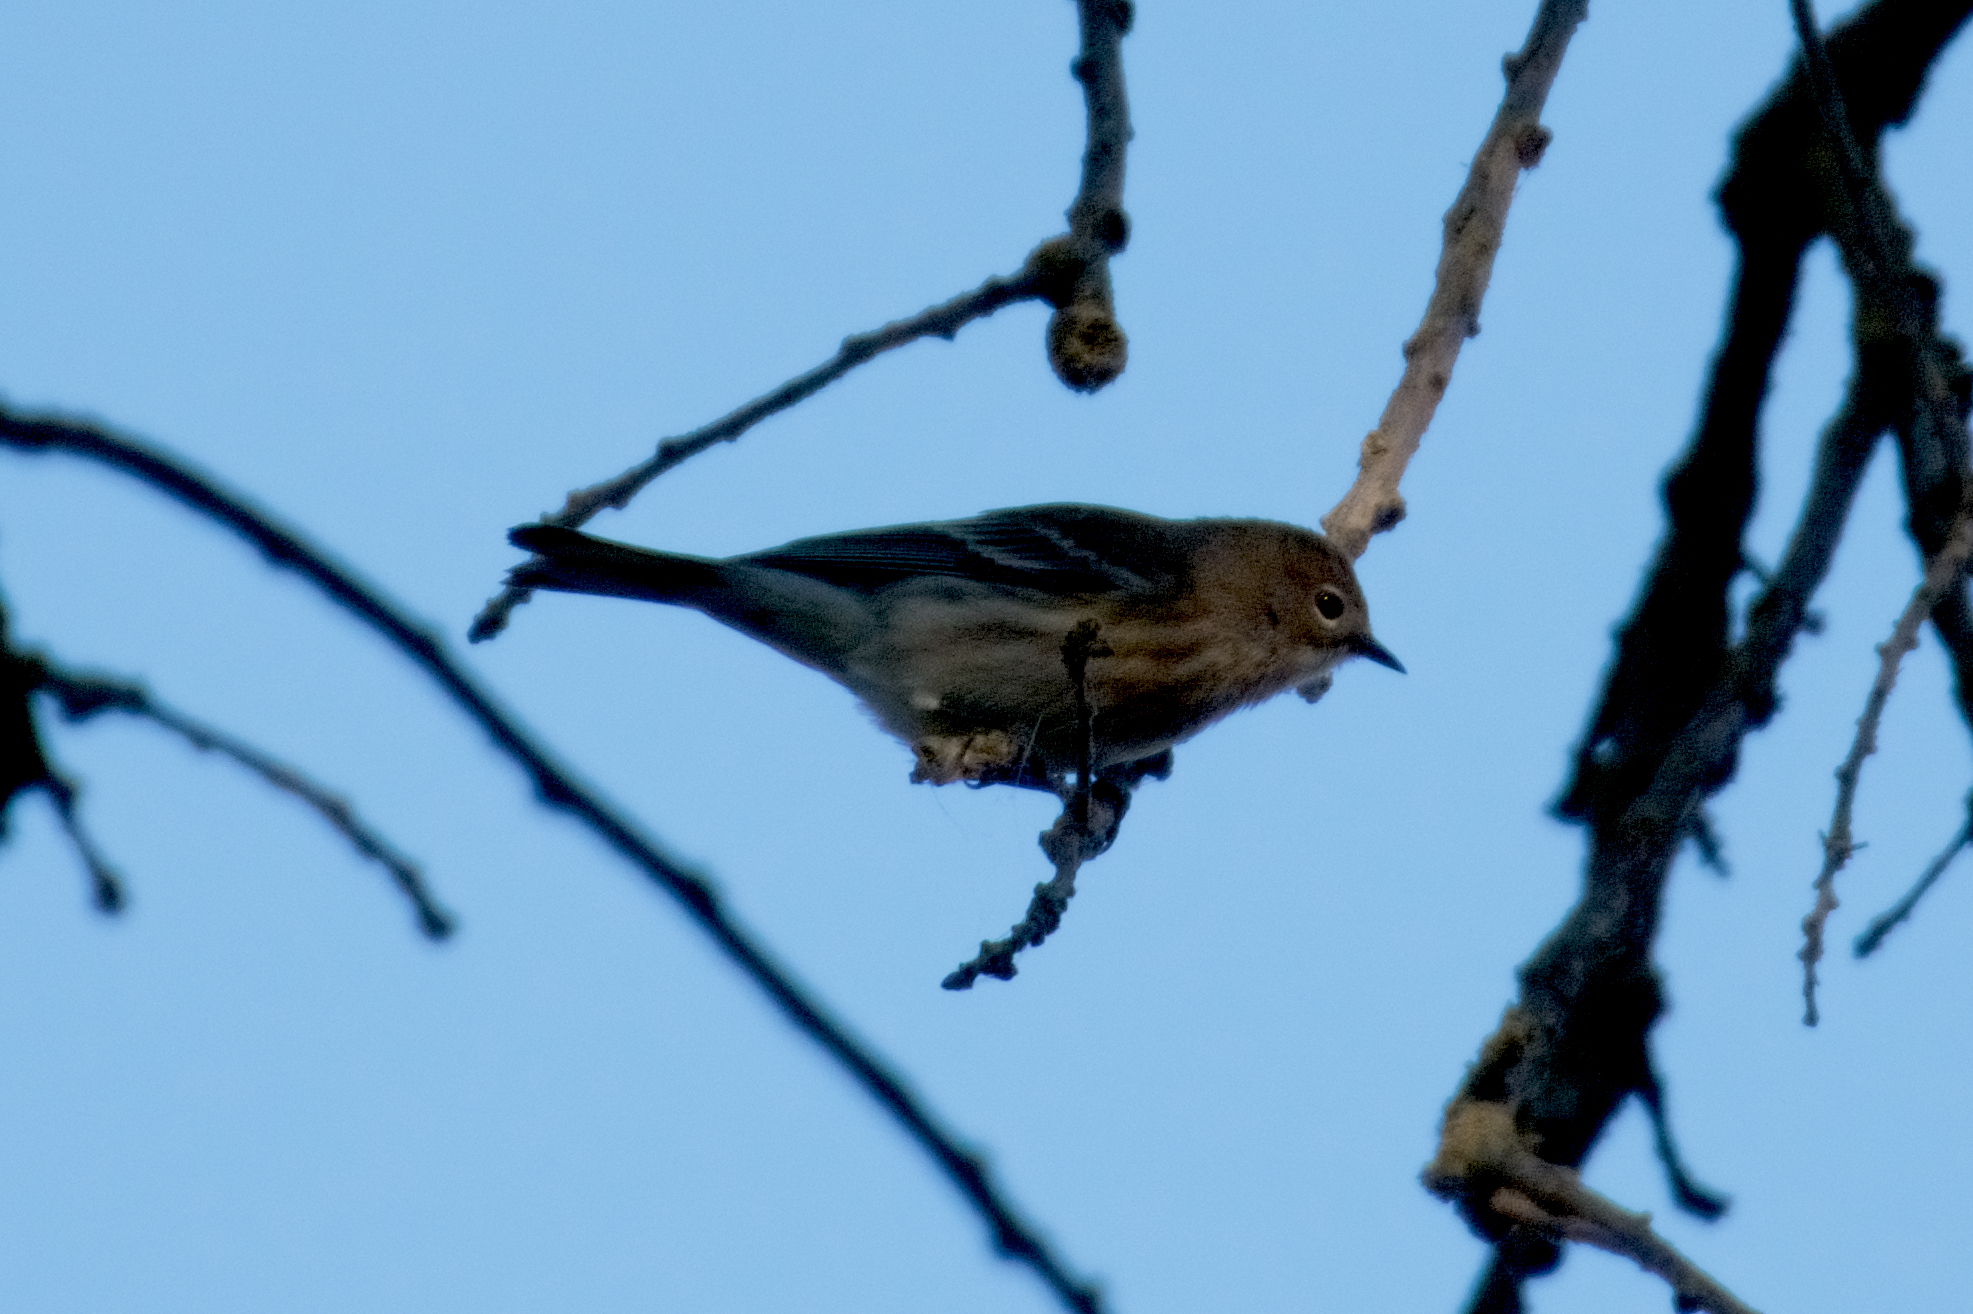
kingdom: Animalia
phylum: Chordata
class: Aves
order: Passeriformes
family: Parulidae
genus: Setophaga
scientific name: Setophaga coronata
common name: Myrtle warbler
